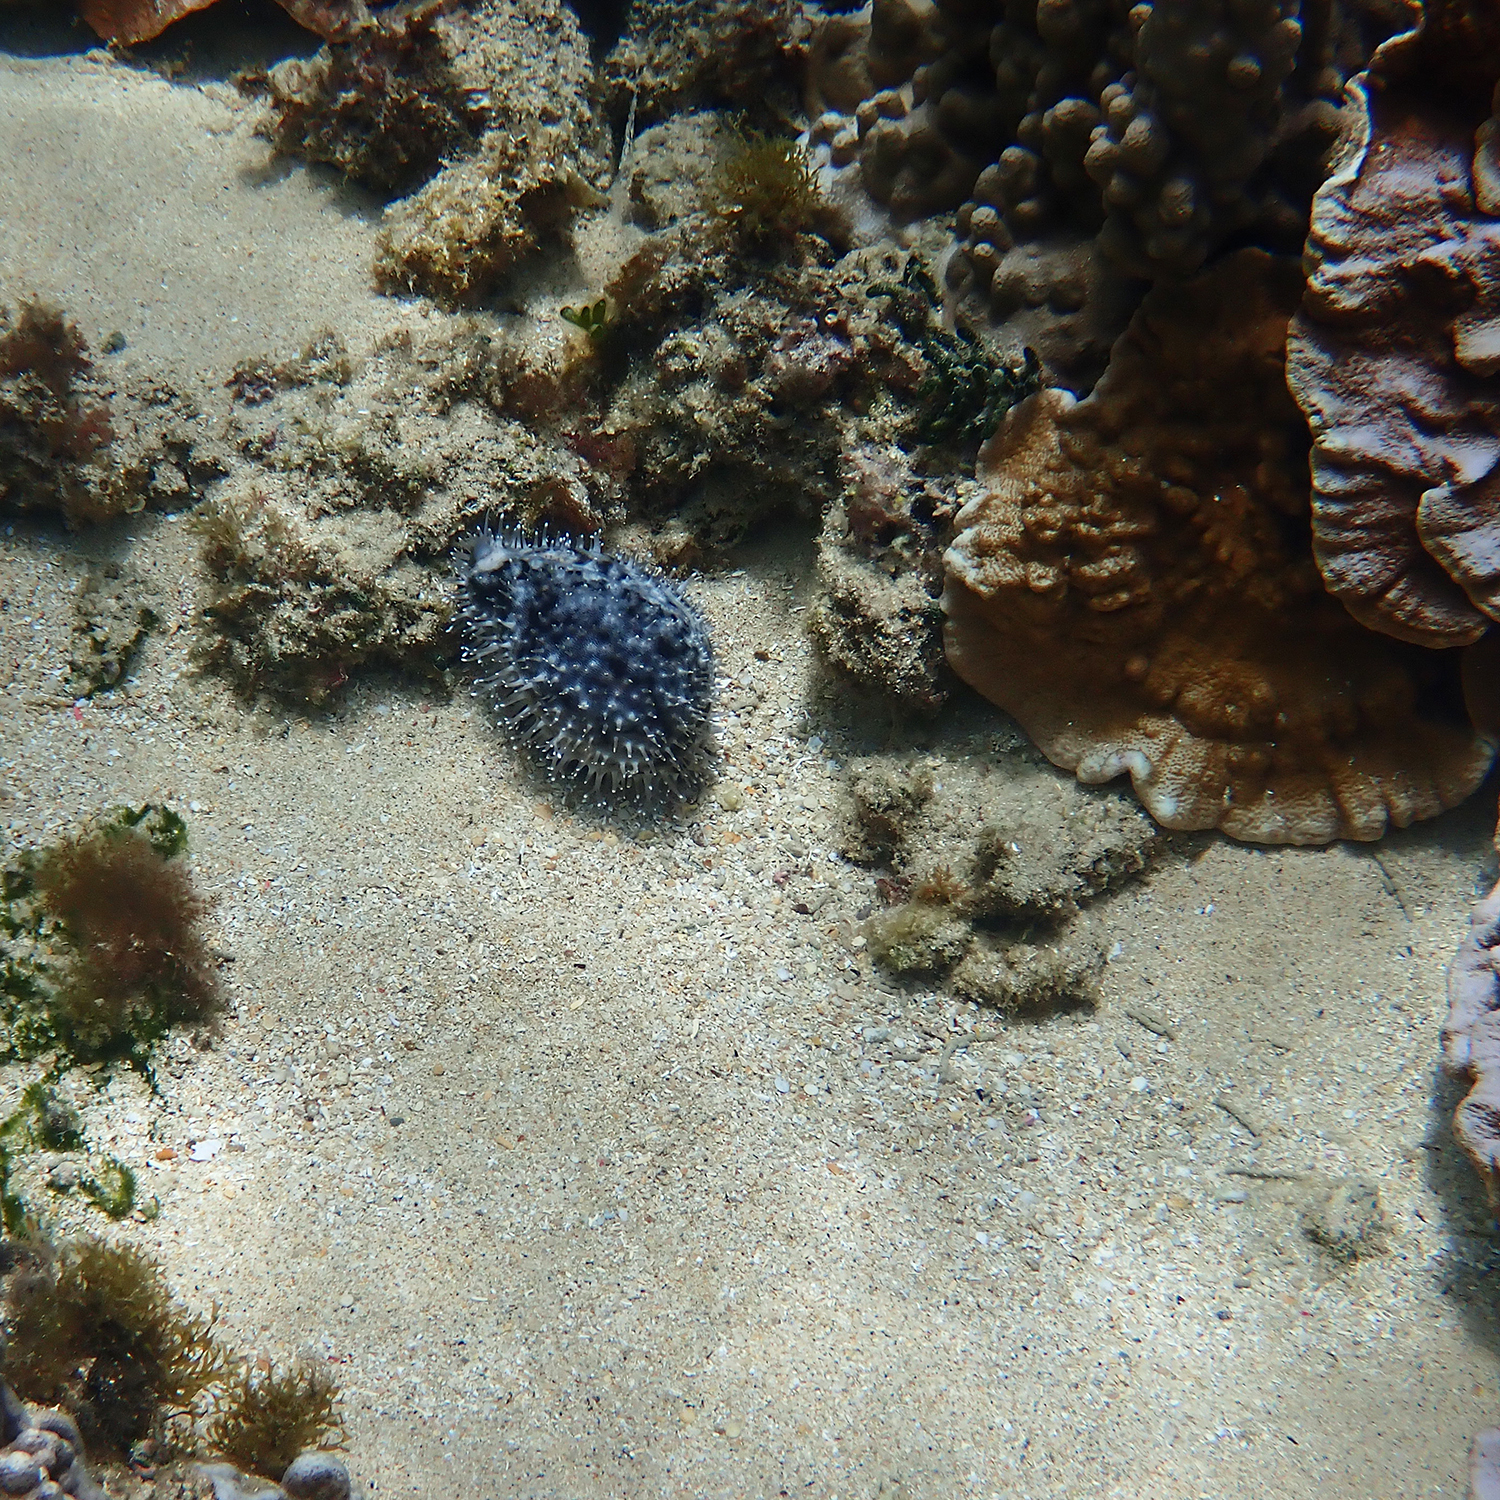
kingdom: Animalia
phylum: Mollusca
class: Gastropoda
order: Littorinimorpha
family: Cypraeidae
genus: Cypraea
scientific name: Cypraea tigris
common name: Tiger cowrie
